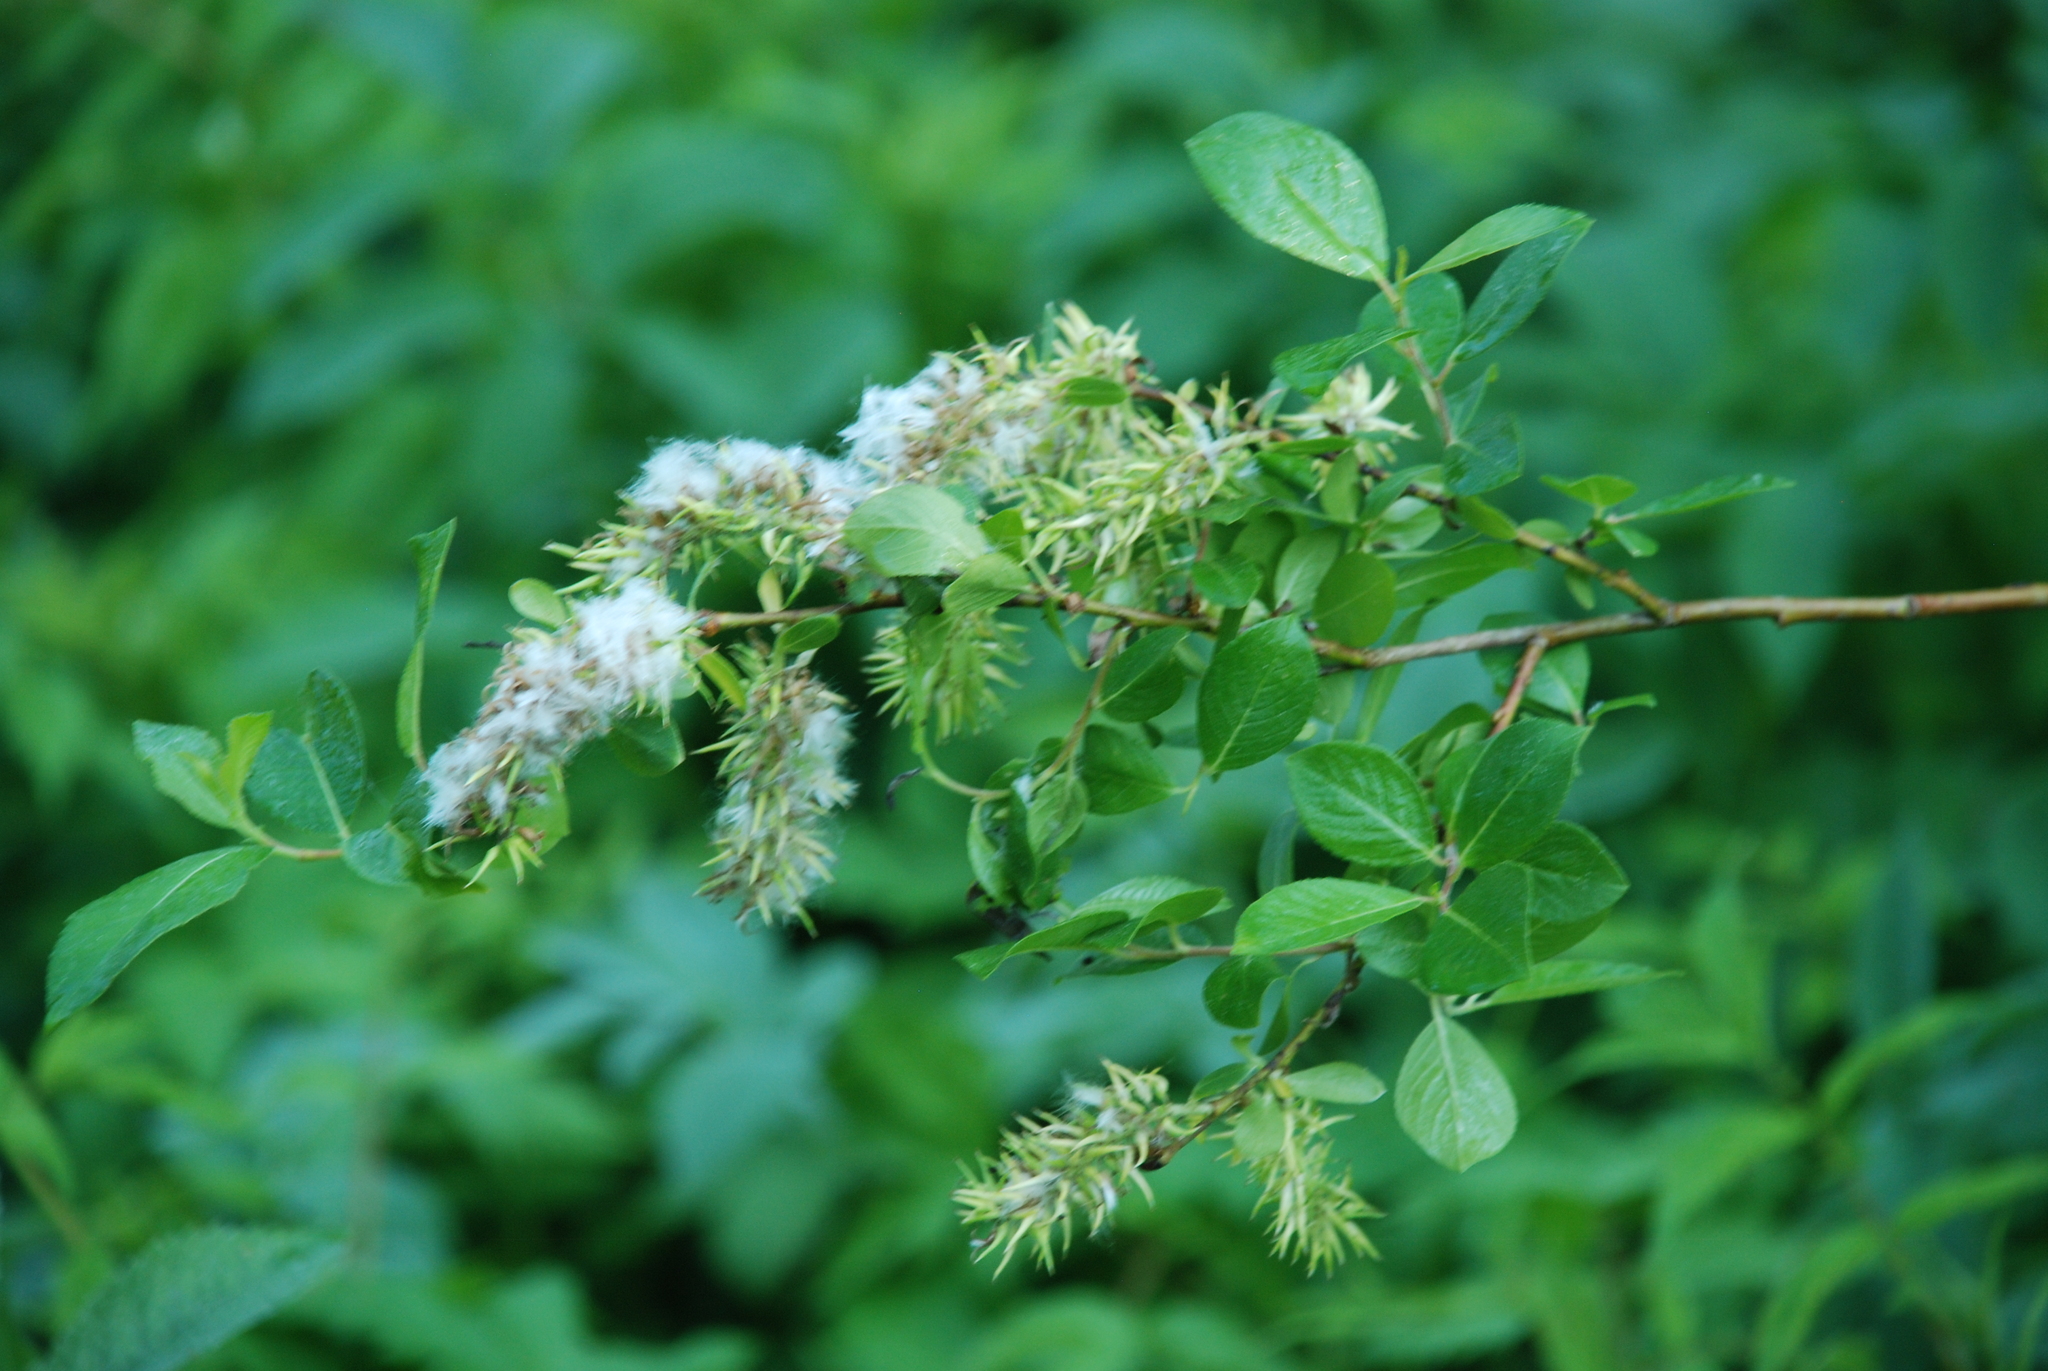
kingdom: Plantae
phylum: Tracheophyta
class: Magnoliopsida
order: Malpighiales
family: Salicaceae
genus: Salix
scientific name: Salix myrsinifolia
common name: Dark-leaved willow
